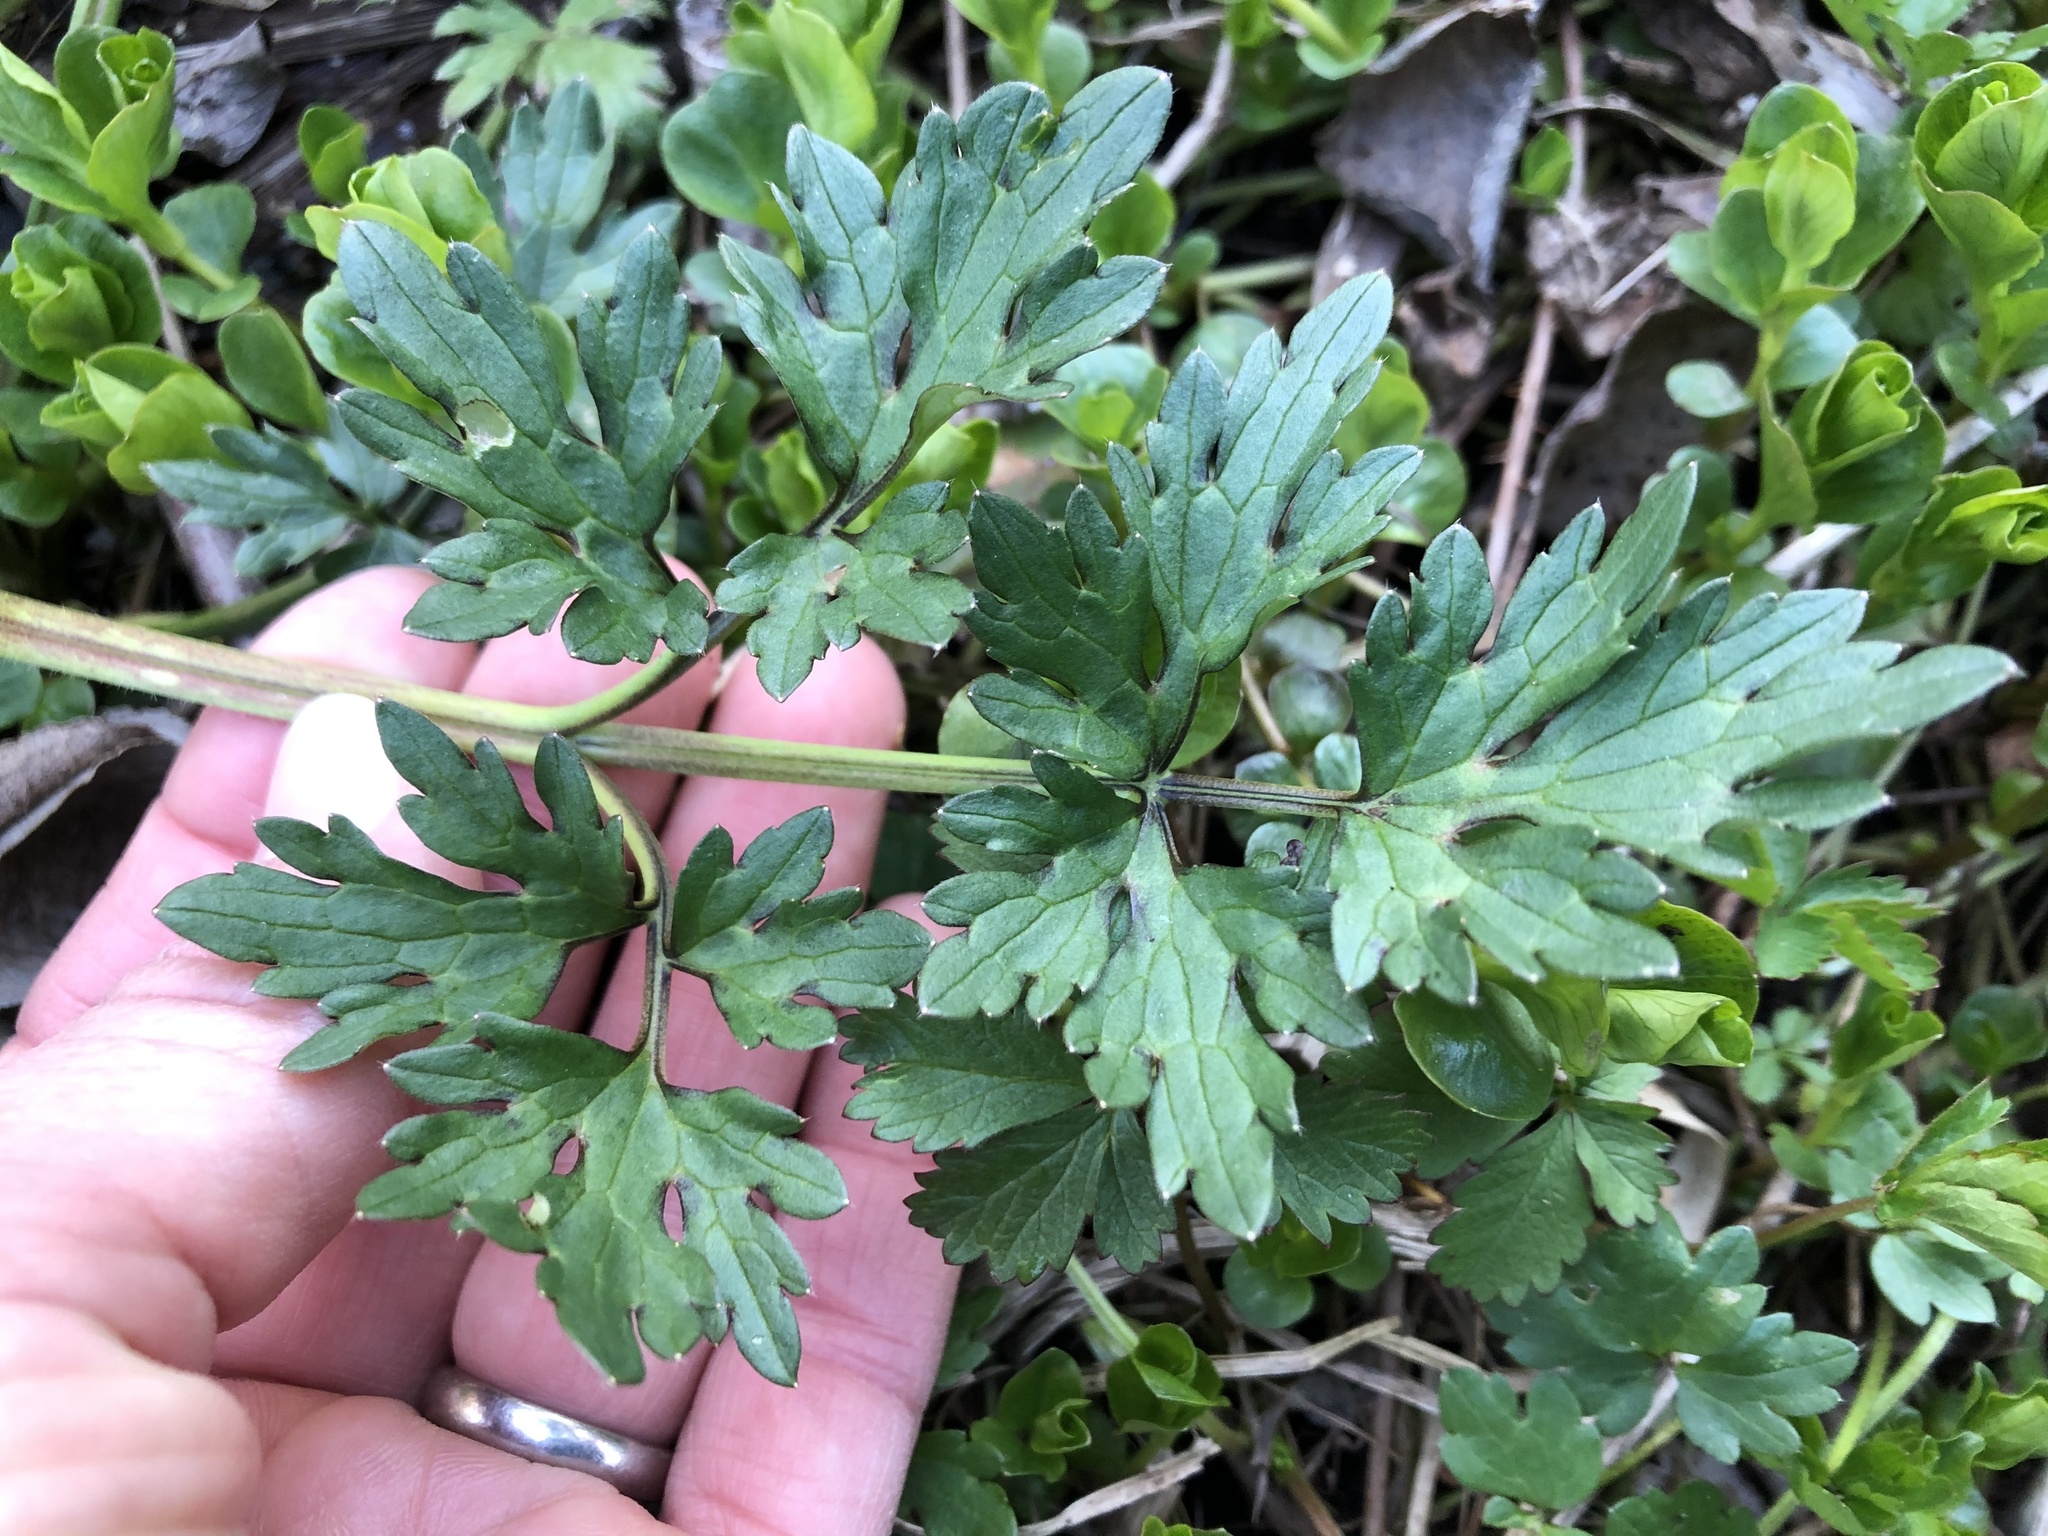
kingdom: Plantae
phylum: Tracheophyta
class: Magnoliopsida
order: Ranunculales
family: Ranunculaceae
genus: Ranunculus
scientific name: Ranunculus repens
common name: Creeping buttercup
